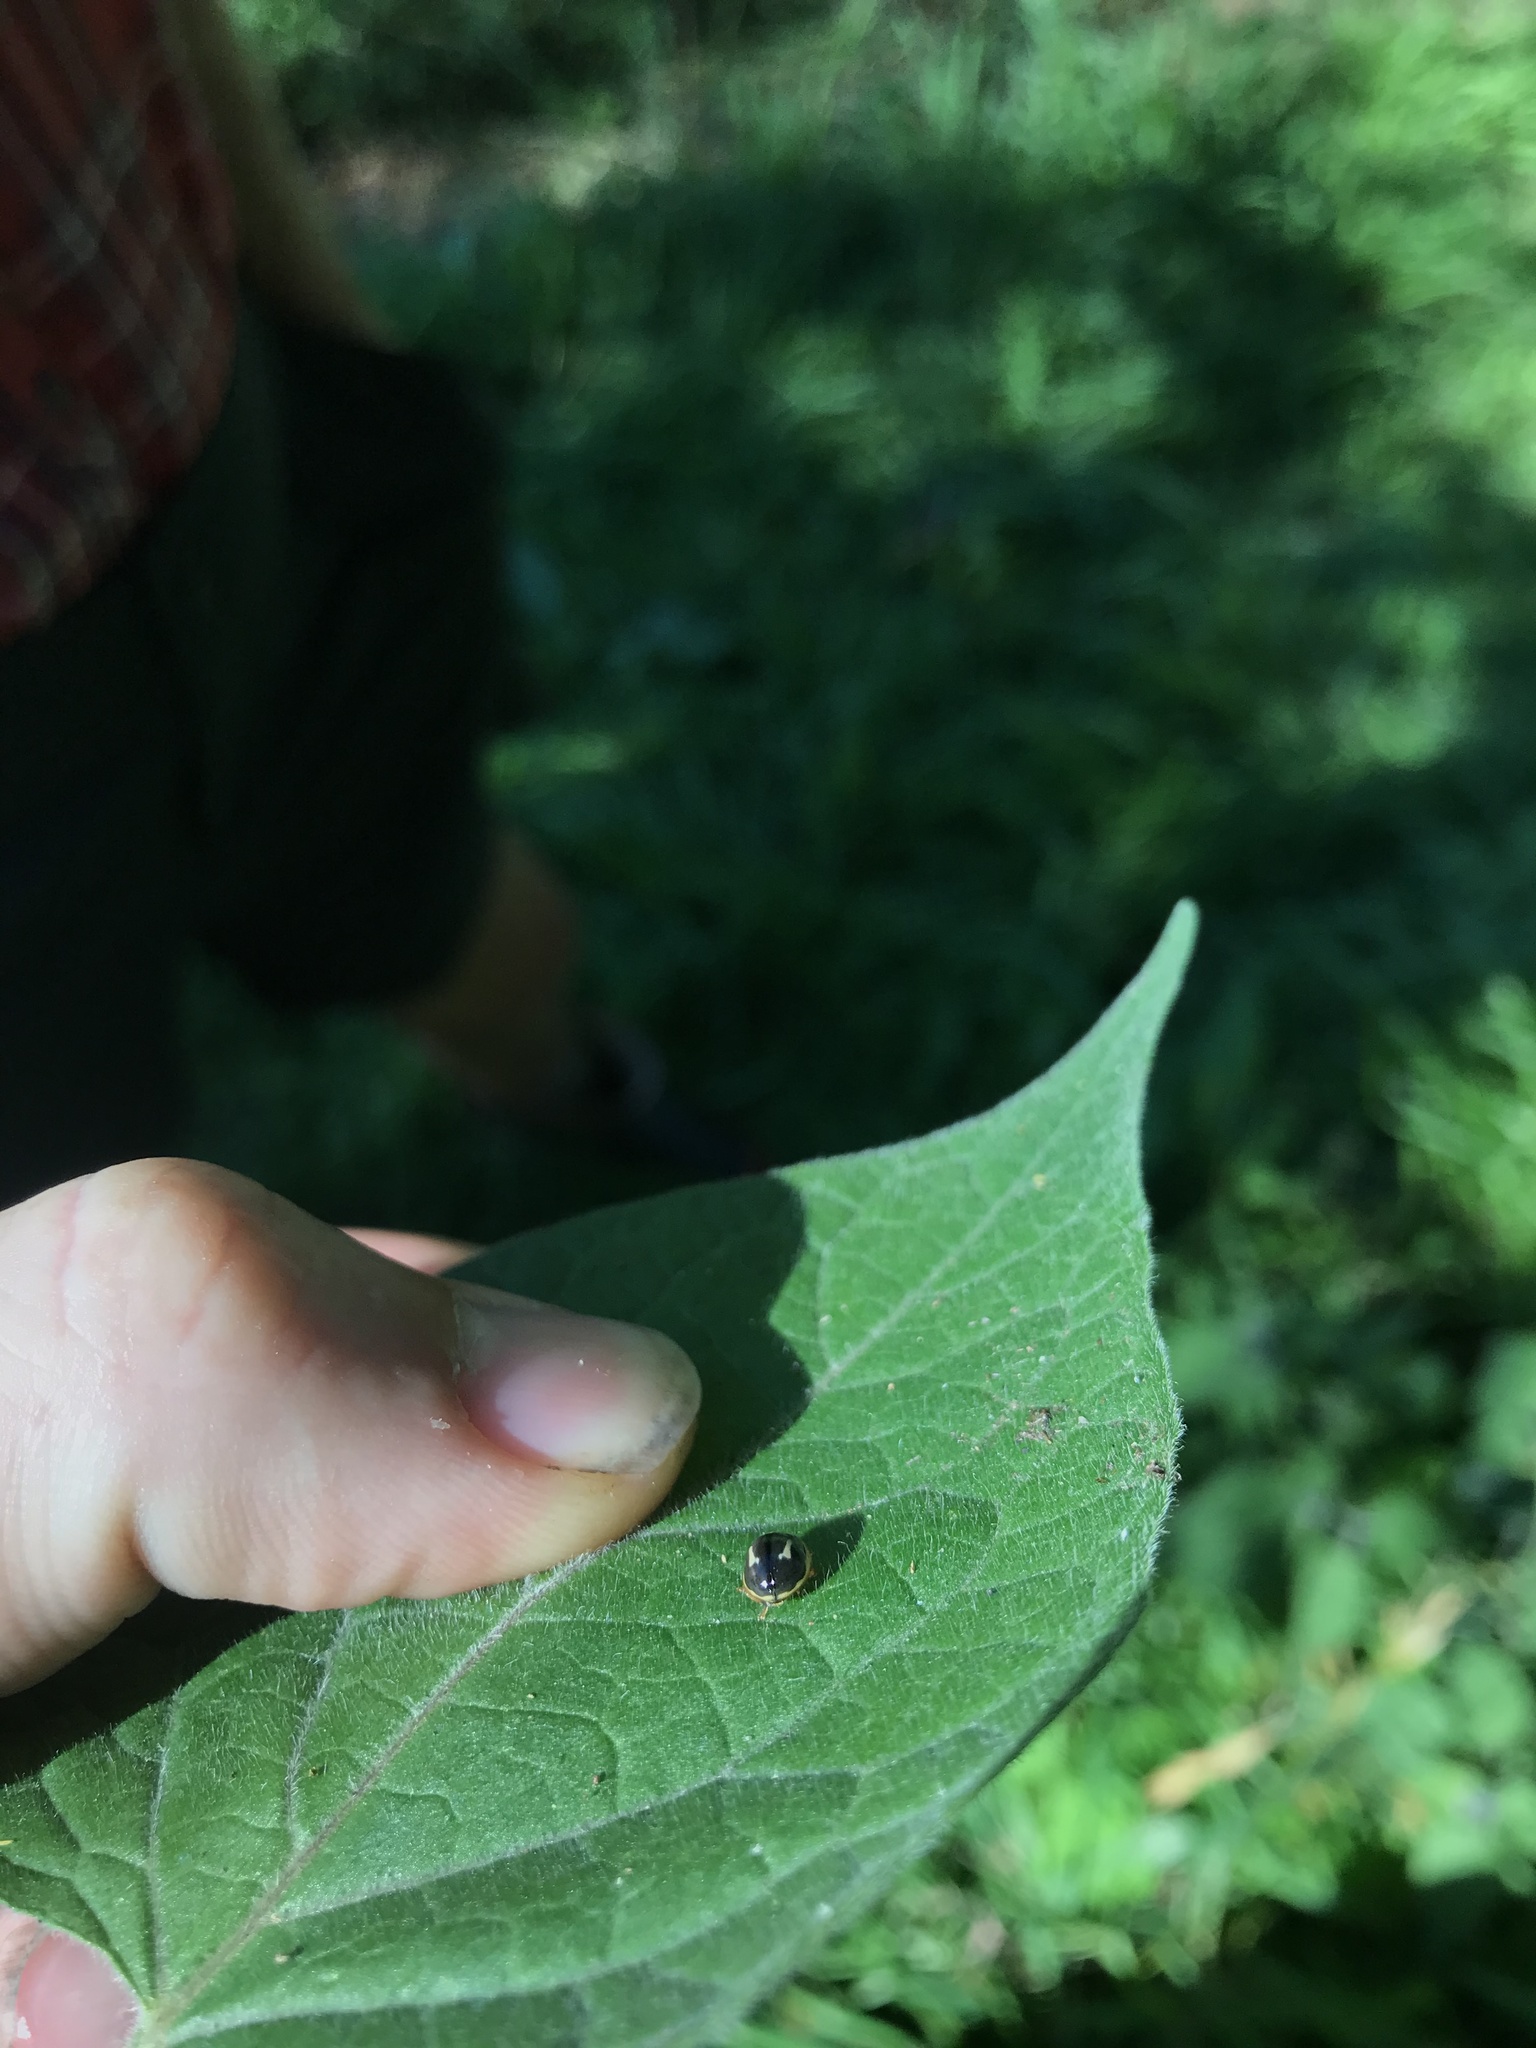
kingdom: Animalia
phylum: Arthropoda
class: Insecta
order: Coleoptera
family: Coccinellidae
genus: Harmonia
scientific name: Harmonia
